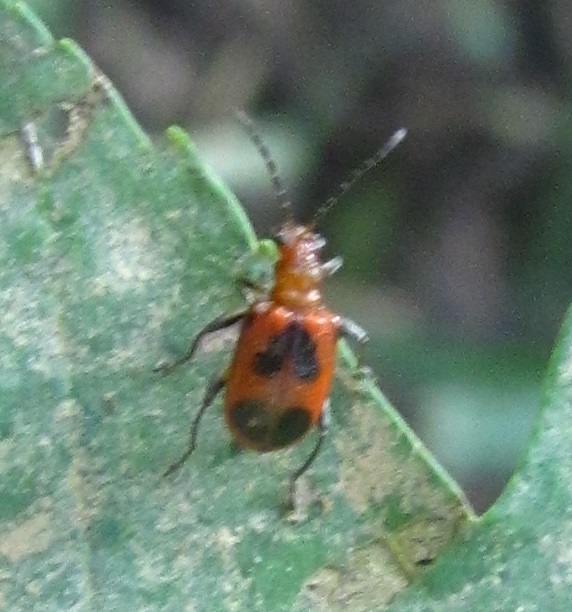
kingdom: Animalia
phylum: Arthropoda
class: Insecta
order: Coleoptera
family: Chrysomelidae
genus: Neolema
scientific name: Neolema cordata
